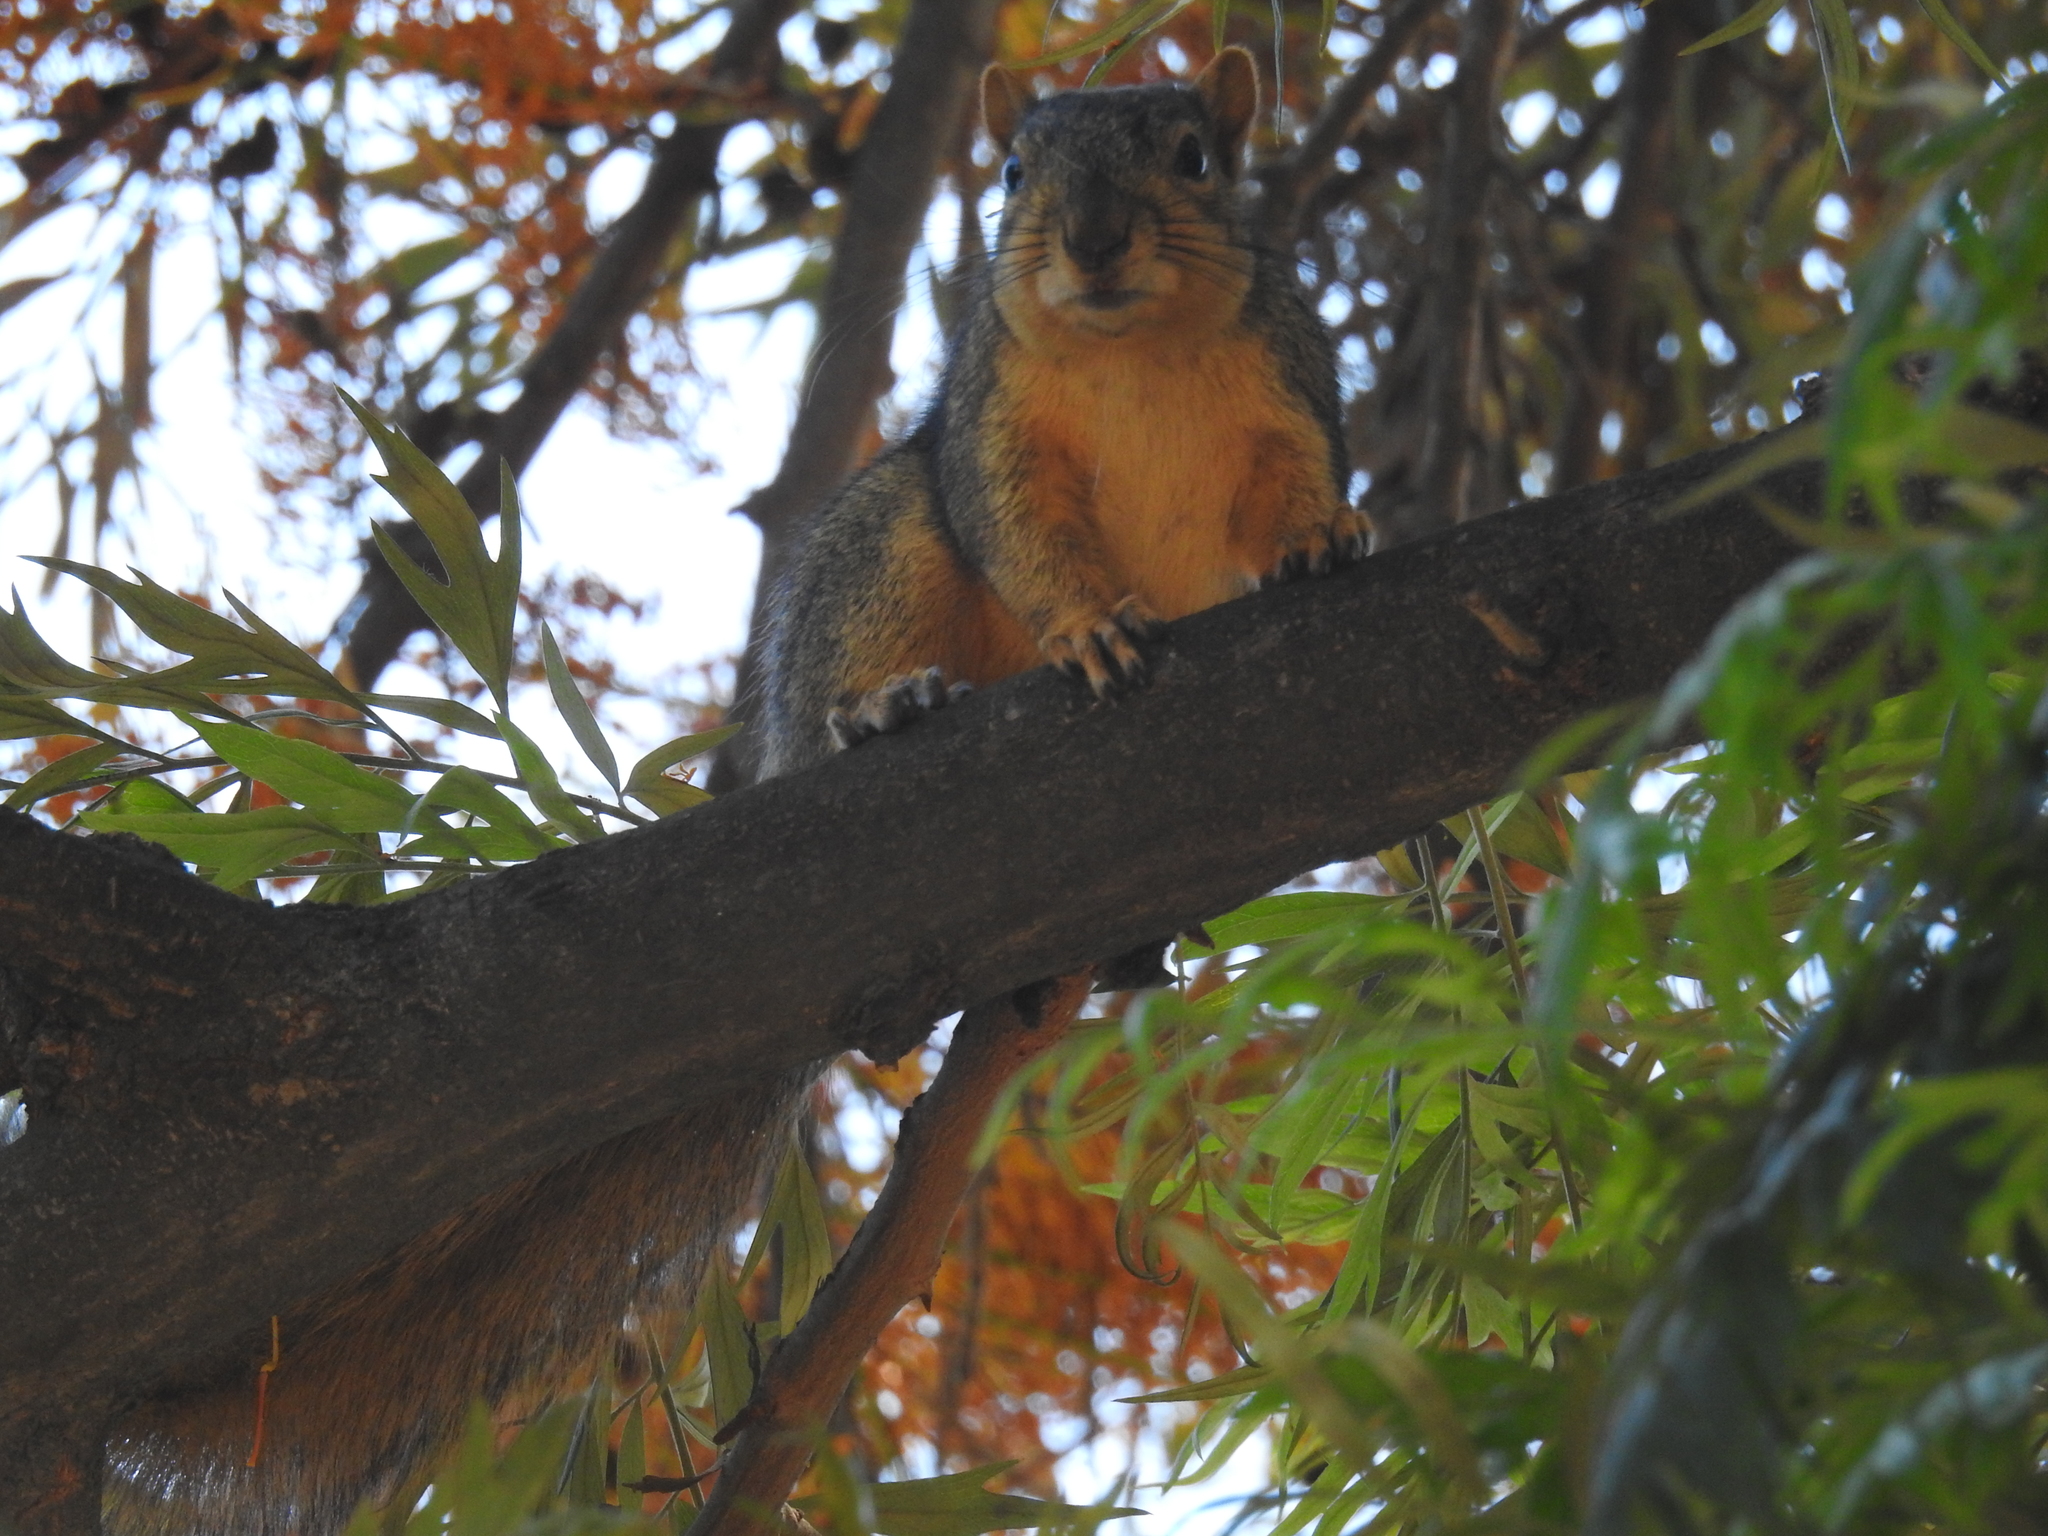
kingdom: Animalia
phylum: Chordata
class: Mammalia
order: Rodentia
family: Sciuridae
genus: Sciurus
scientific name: Sciurus niger
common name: Fox squirrel
